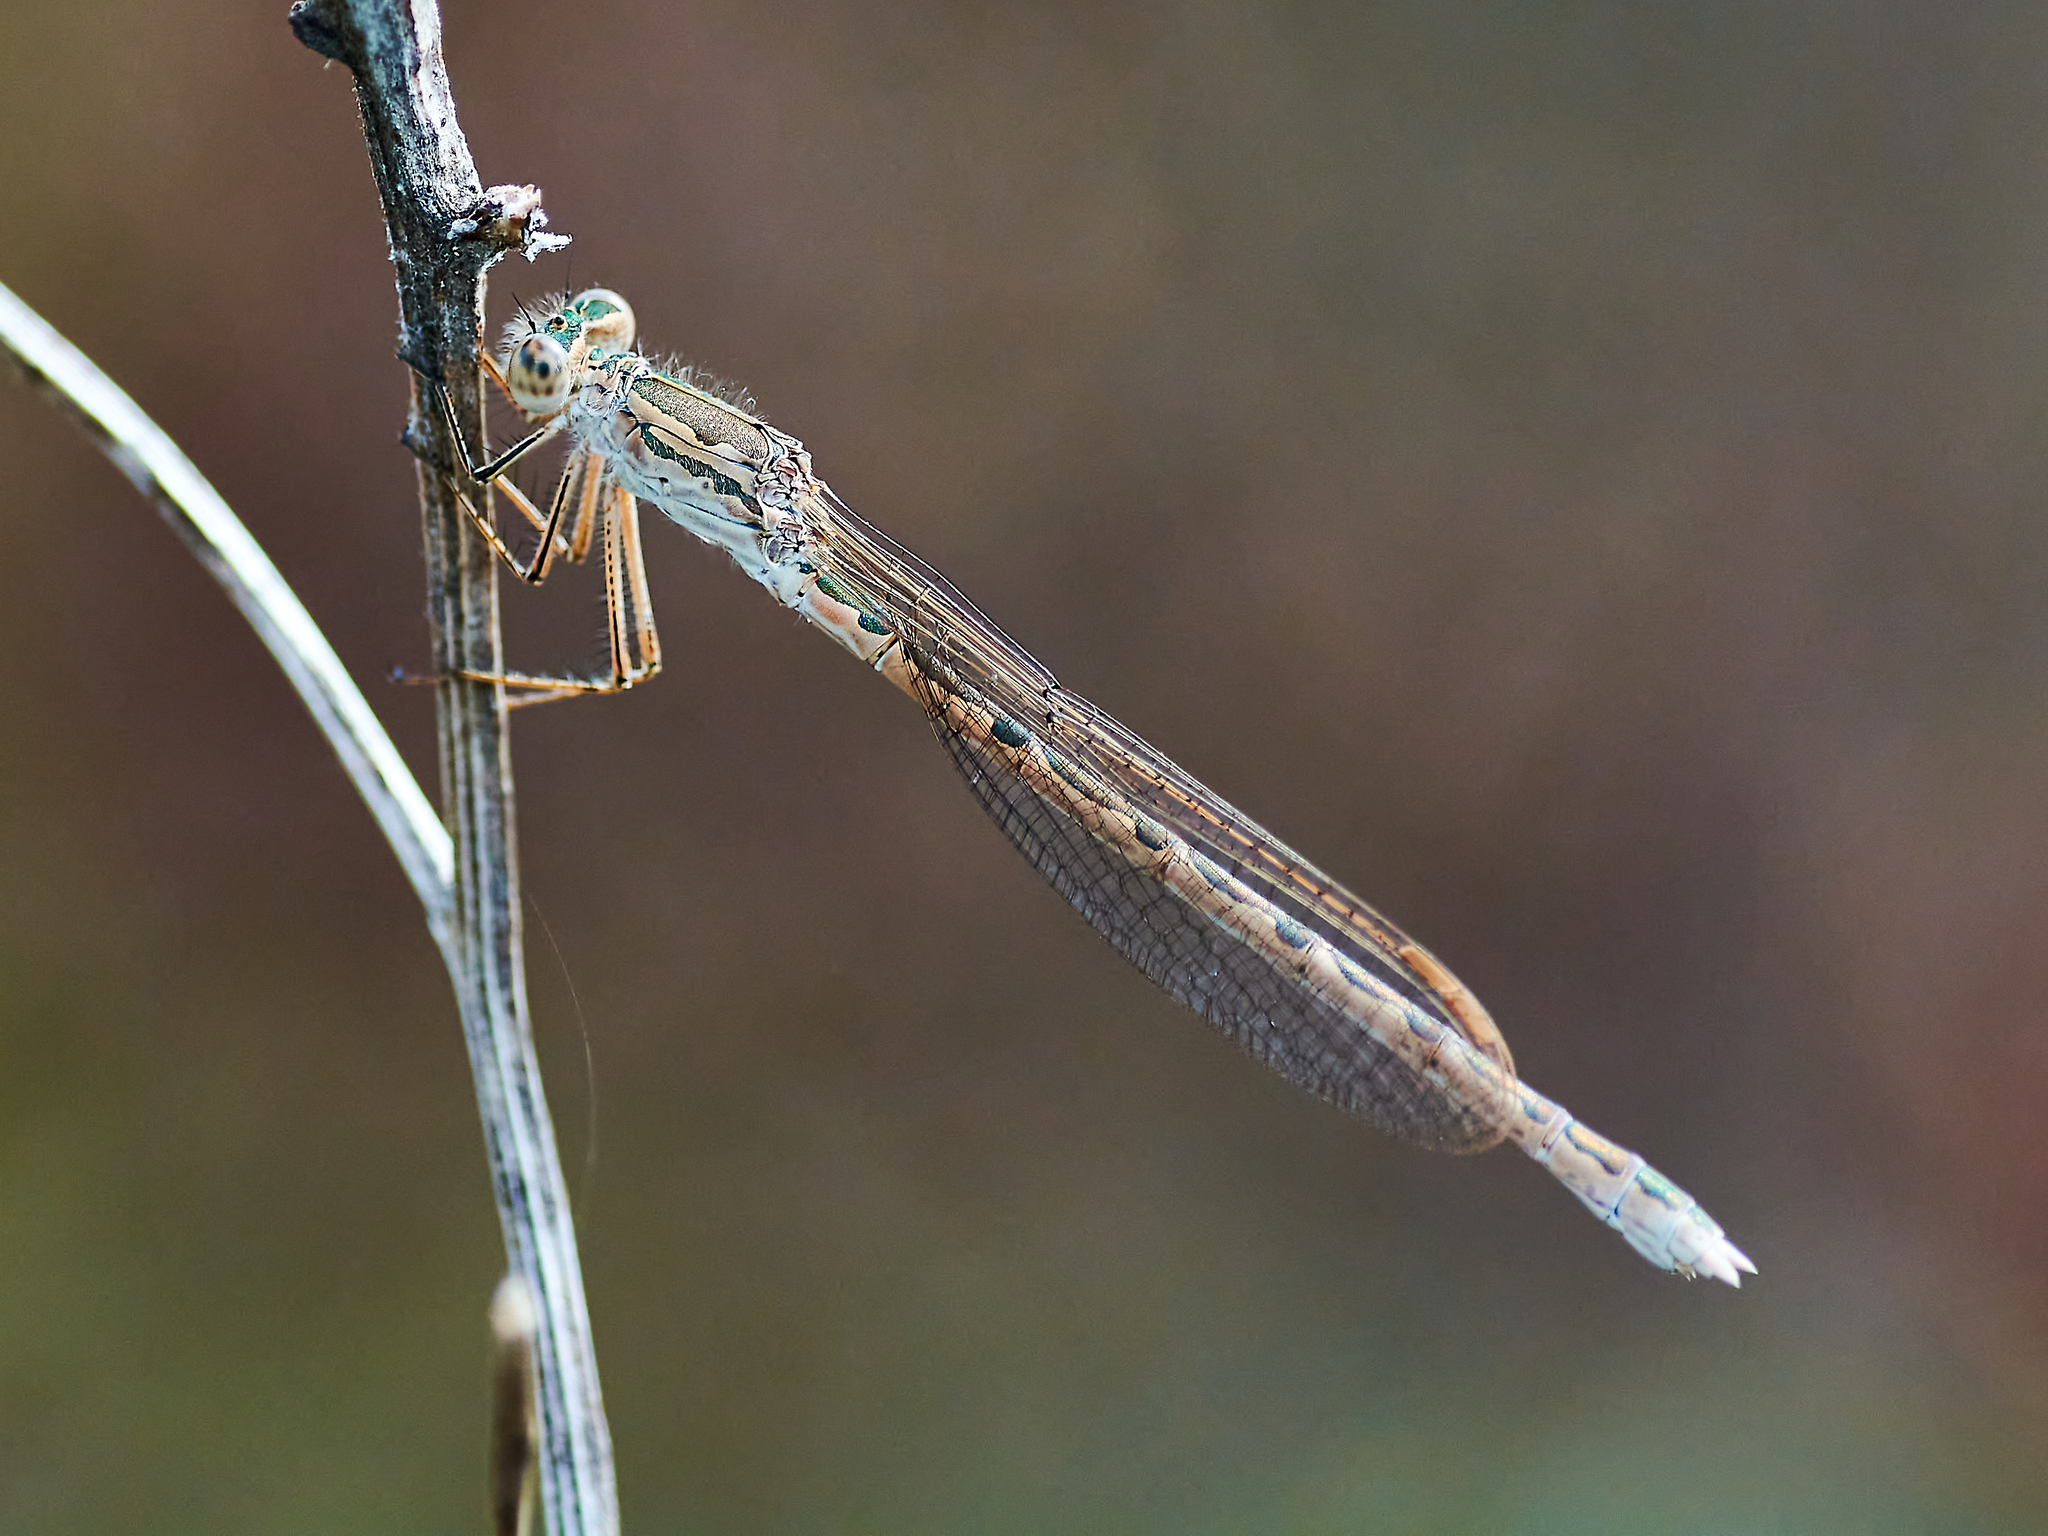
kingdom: Animalia
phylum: Arthropoda
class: Insecta
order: Odonata
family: Lestidae
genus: Sympecma
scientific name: Sympecma paedisca
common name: Siberian winter damsel
